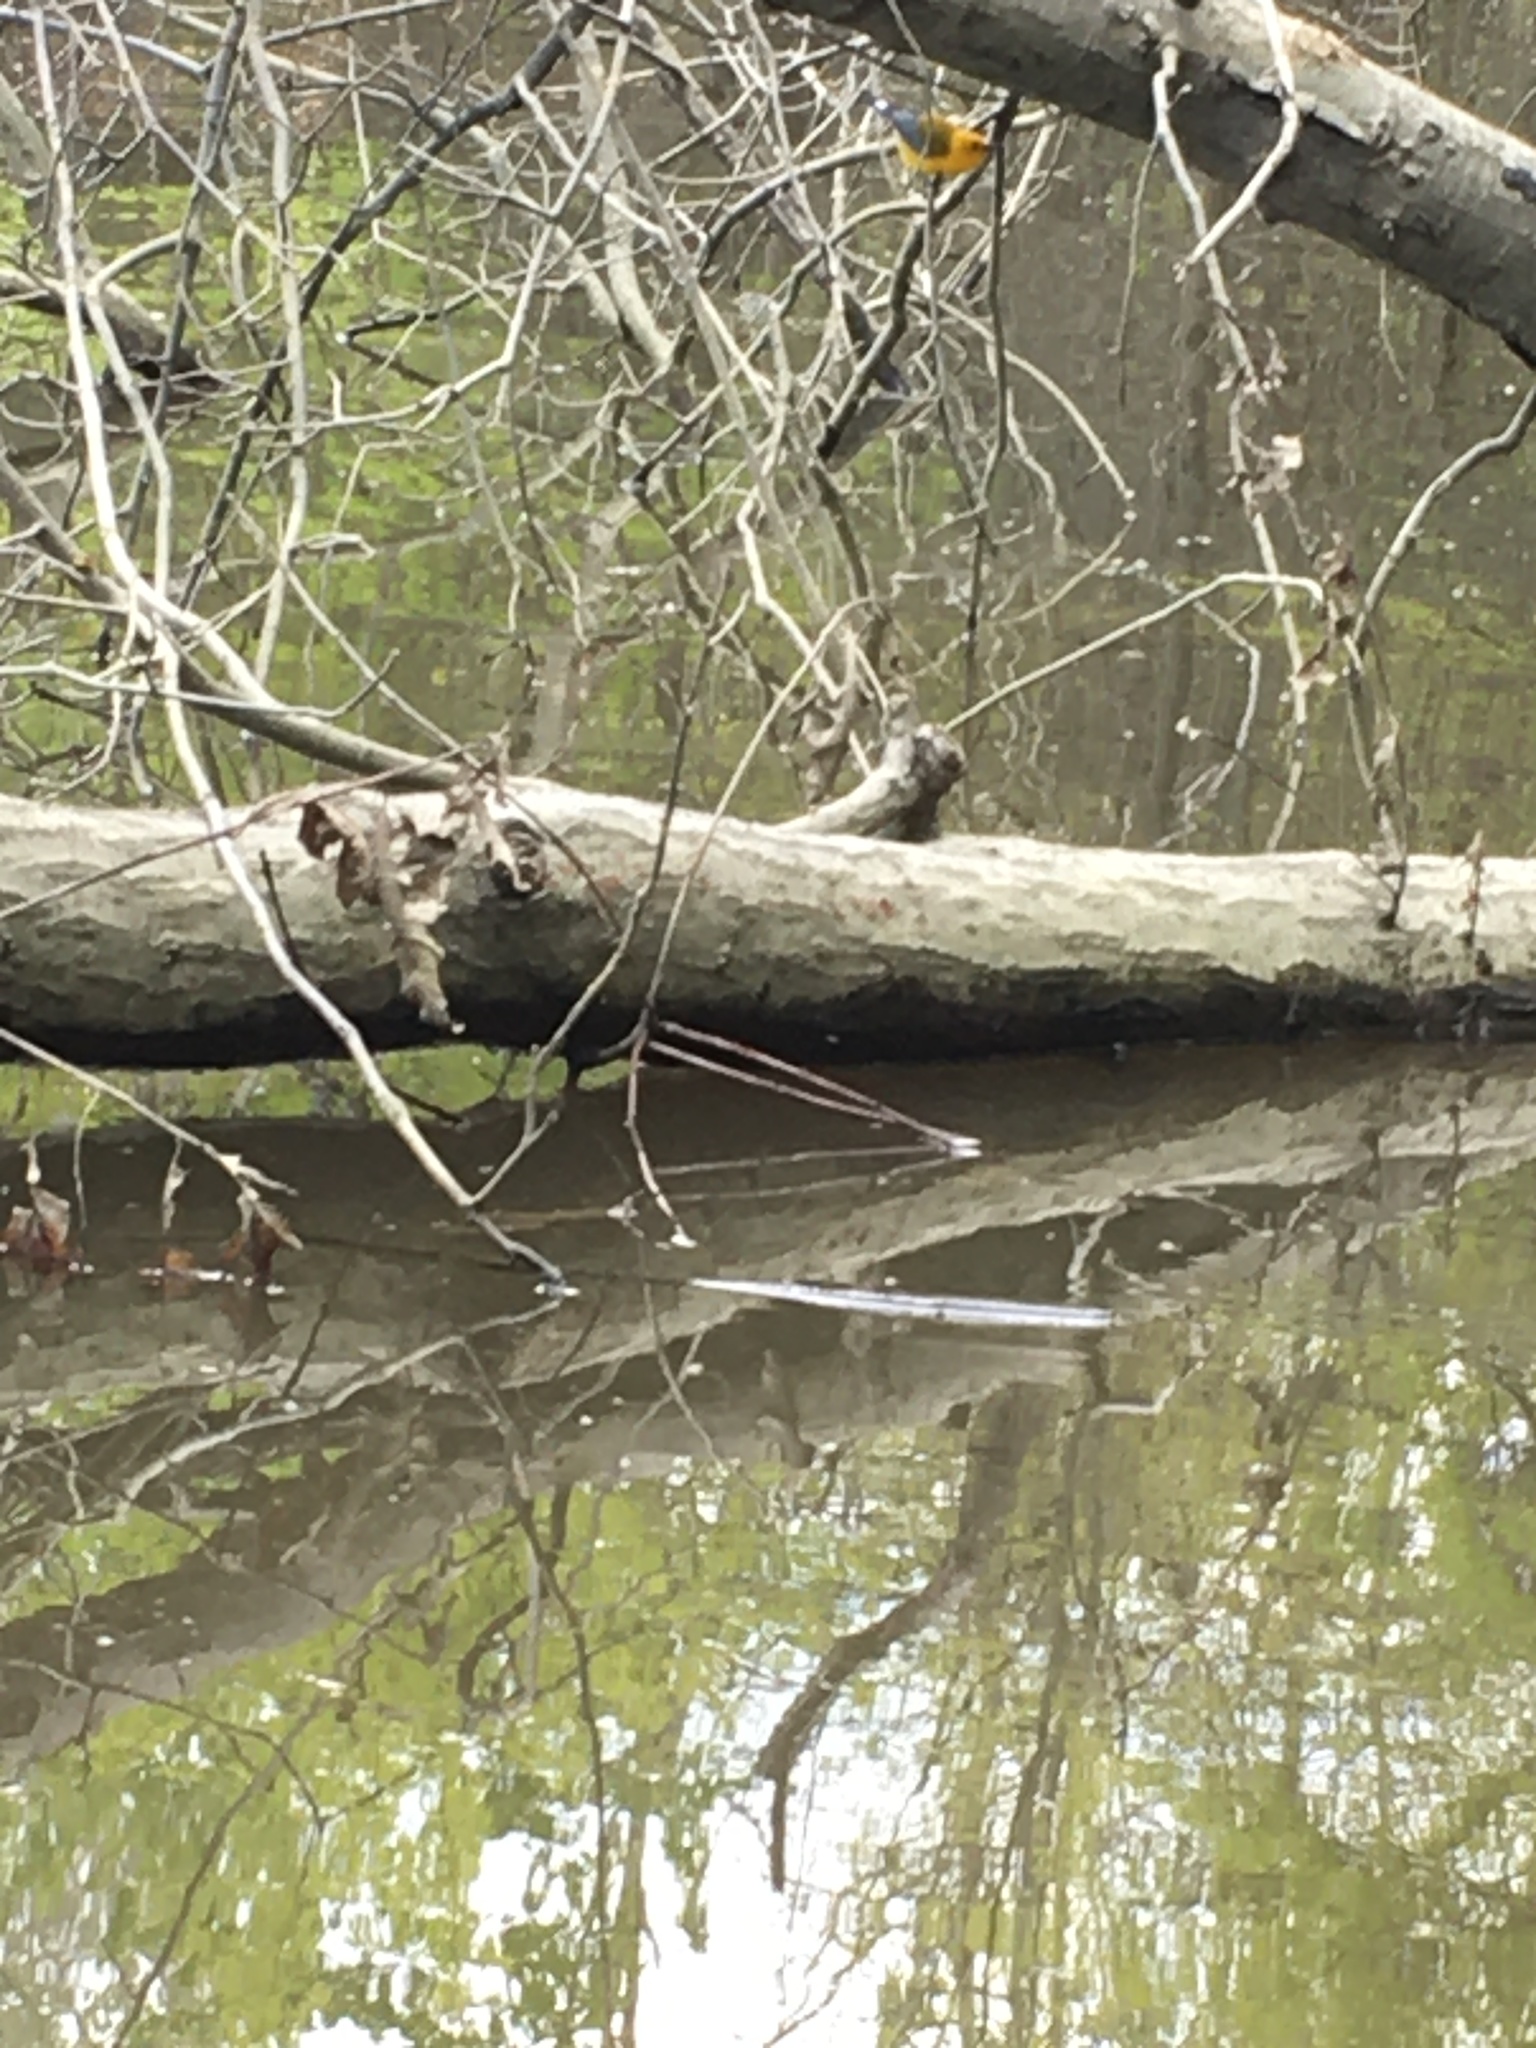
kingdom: Animalia
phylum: Chordata
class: Aves
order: Passeriformes
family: Parulidae
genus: Protonotaria
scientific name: Protonotaria citrea
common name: Prothonotary warbler
